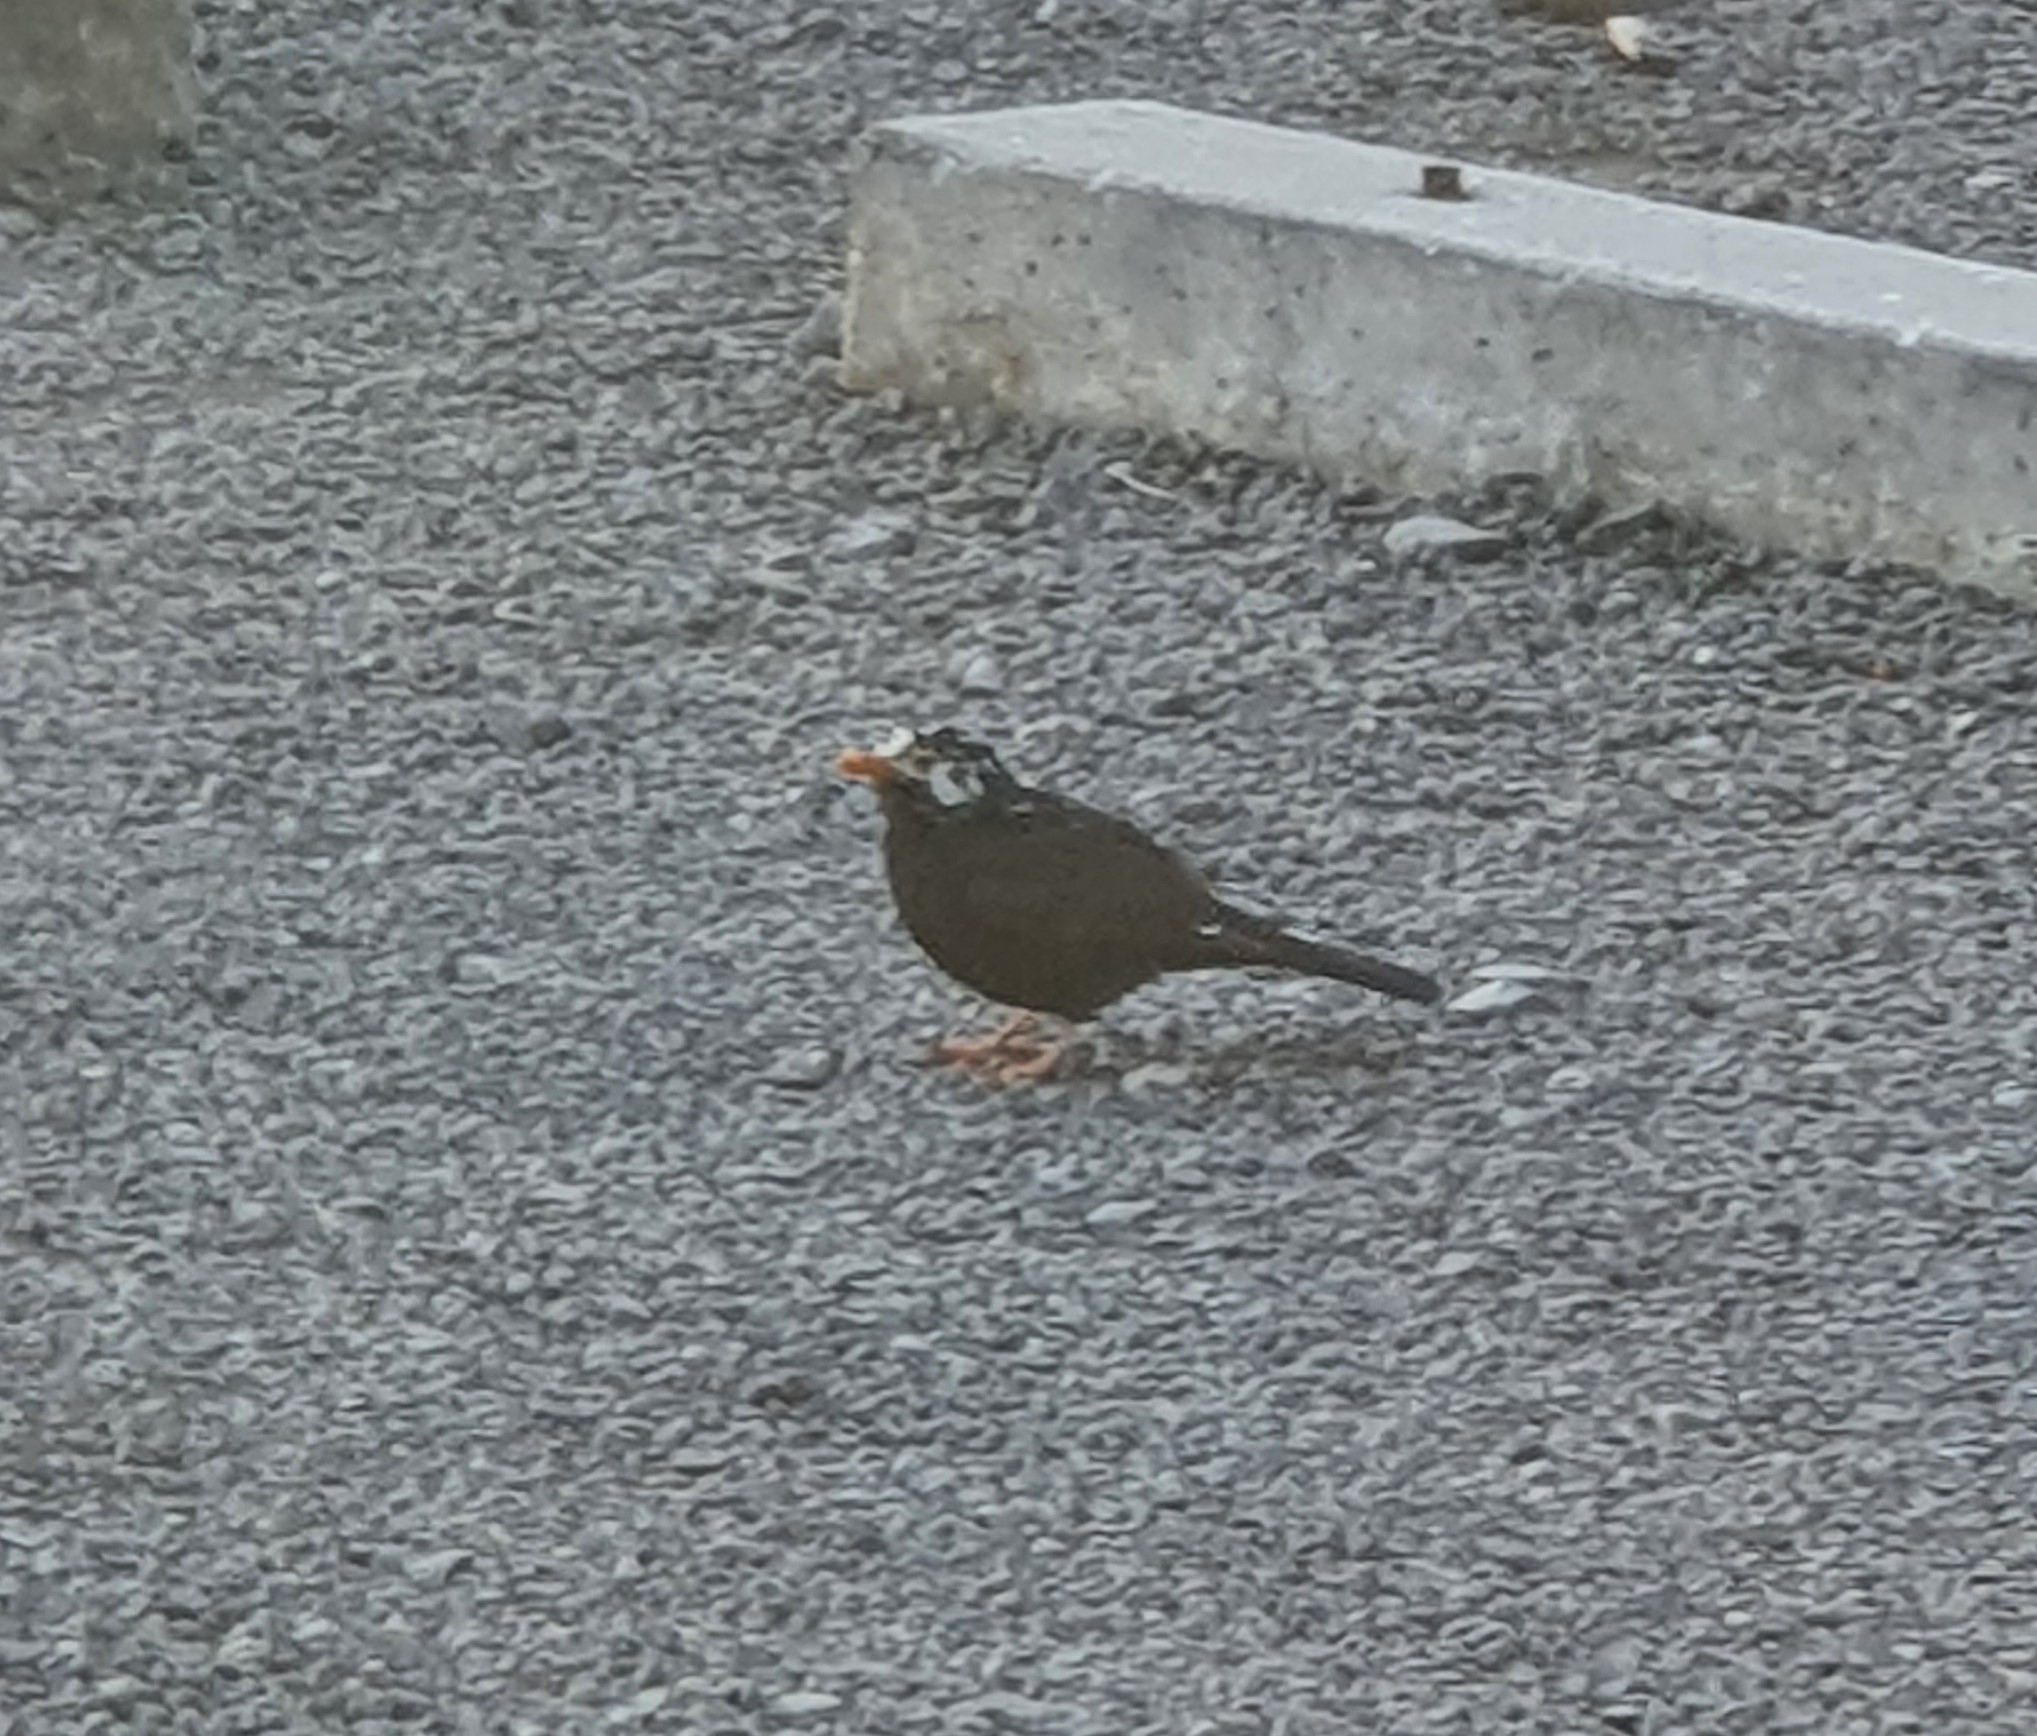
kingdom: Animalia
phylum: Chordata
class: Aves
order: Passeriformes
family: Turdidae
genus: Turdus
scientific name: Turdus merula
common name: Common blackbird
